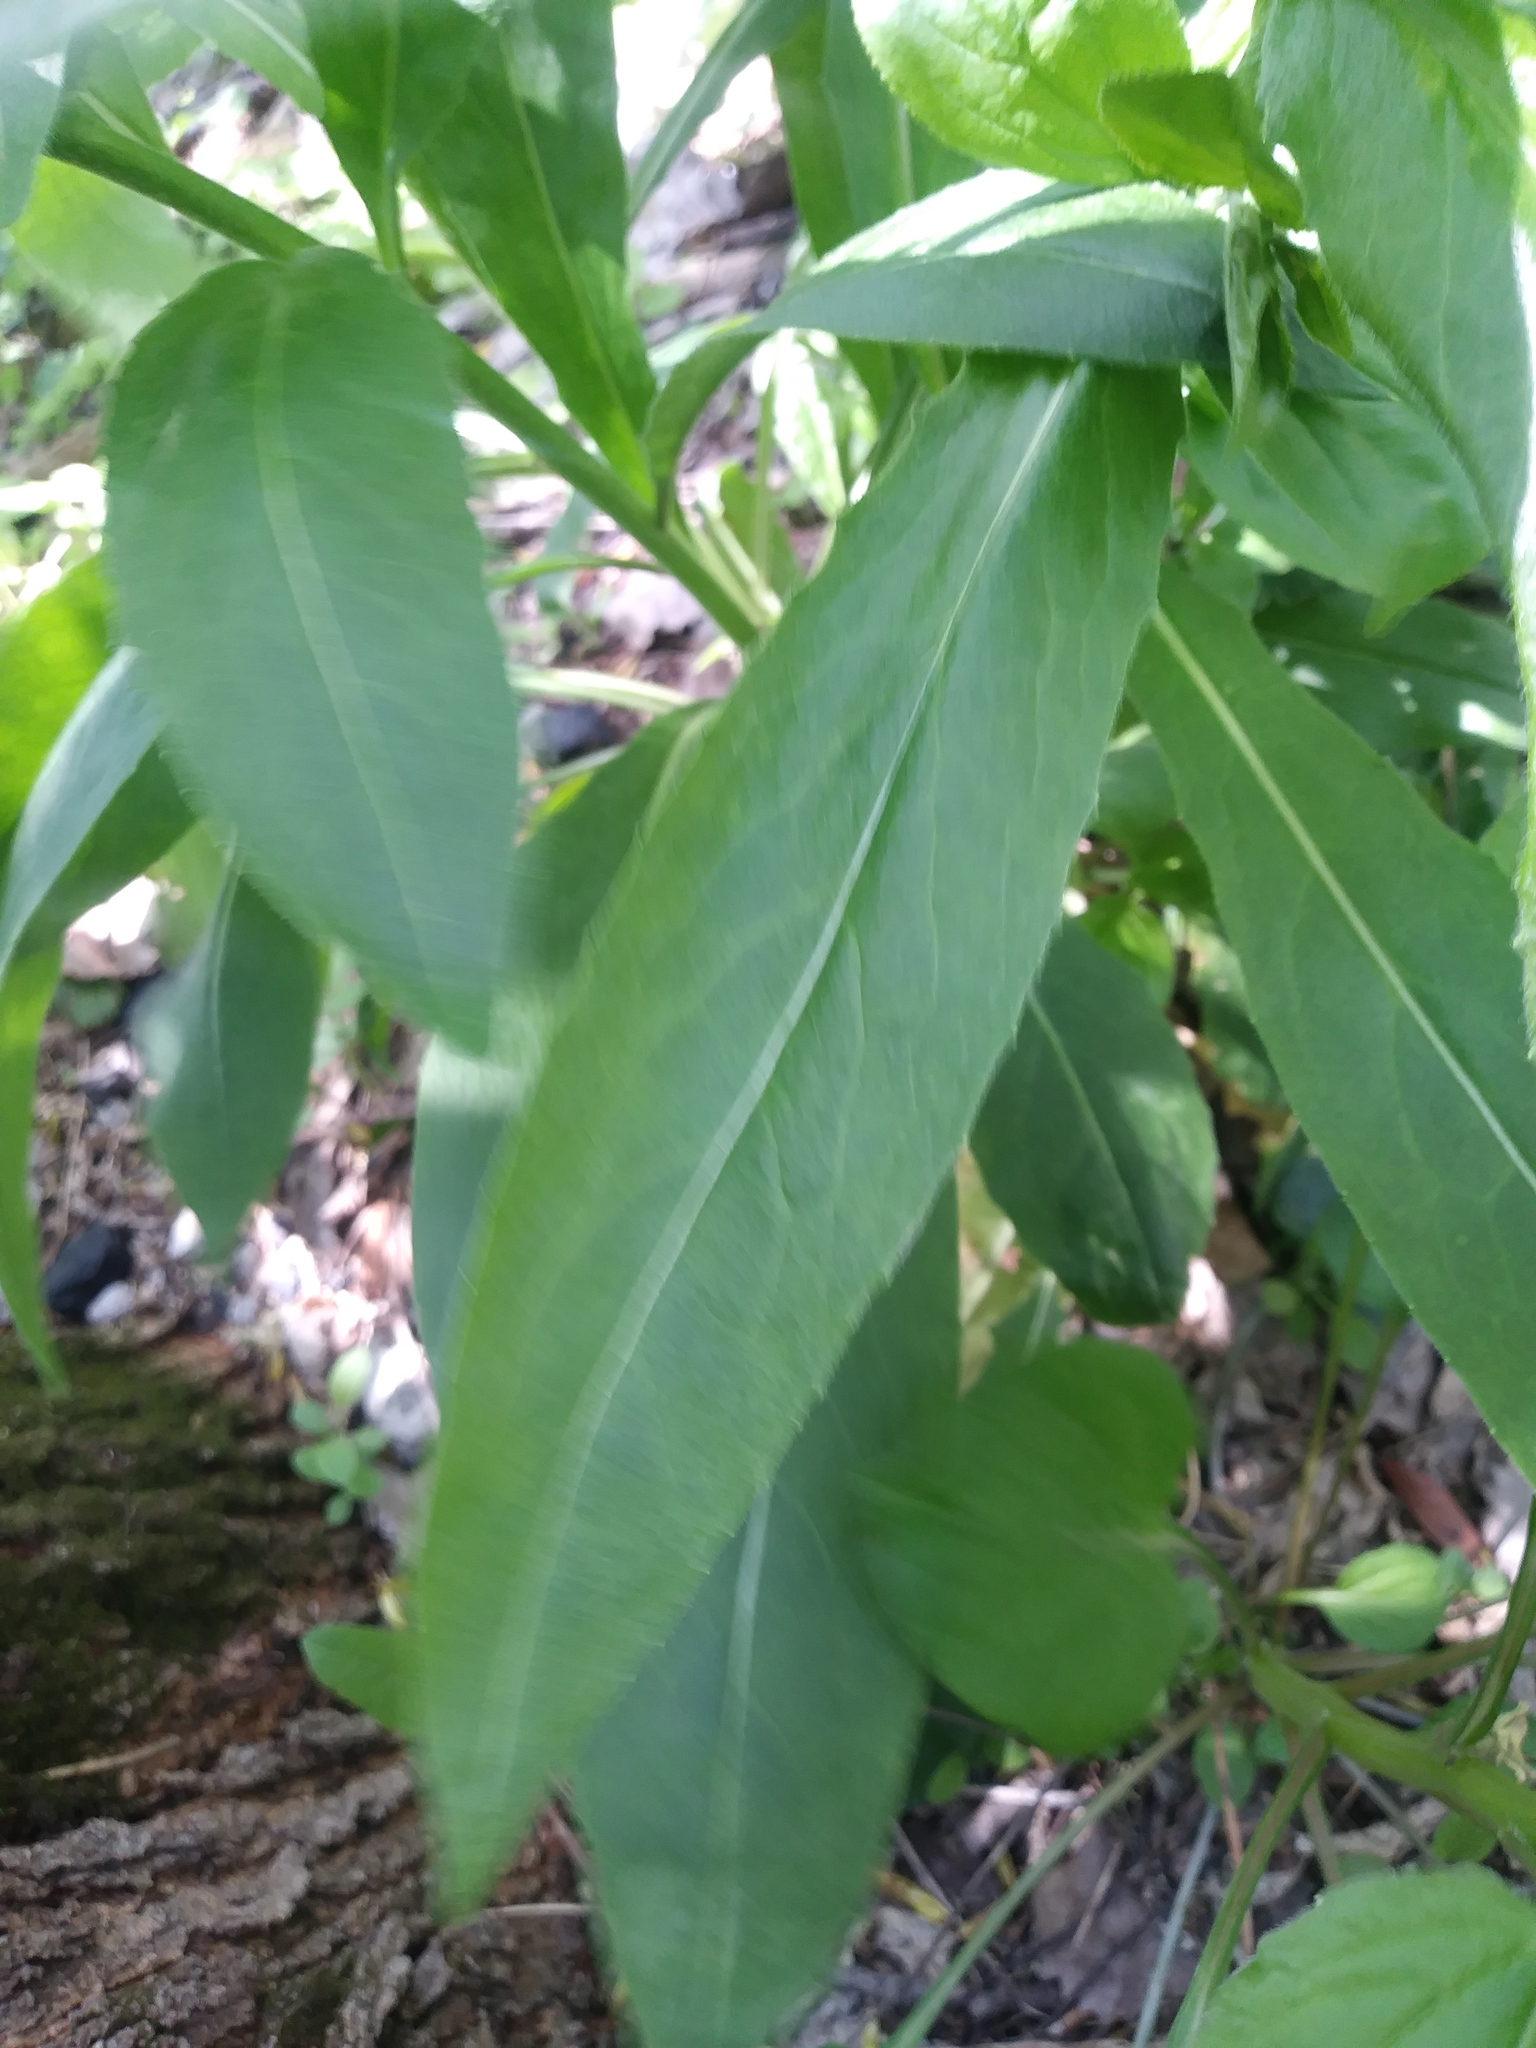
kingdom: Plantae
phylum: Tracheophyta
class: Magnoliopsida
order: Brassicales
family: Brassicaceae
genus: Hesperis
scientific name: Hesperis matronalis
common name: Dame's-violet
